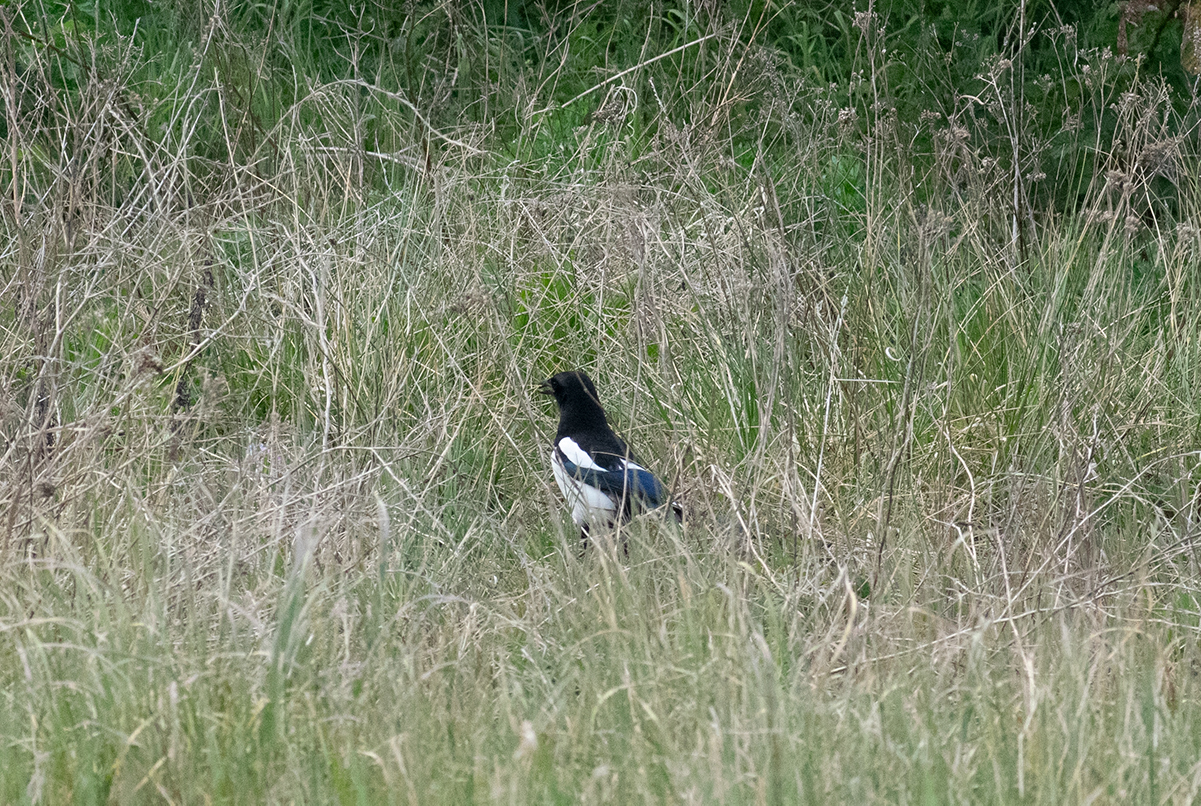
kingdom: Animalia
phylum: Chordata
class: Aves
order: Passeriformes
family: Corvidae
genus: Pica
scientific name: Pica pica
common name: Eurasian magpie
